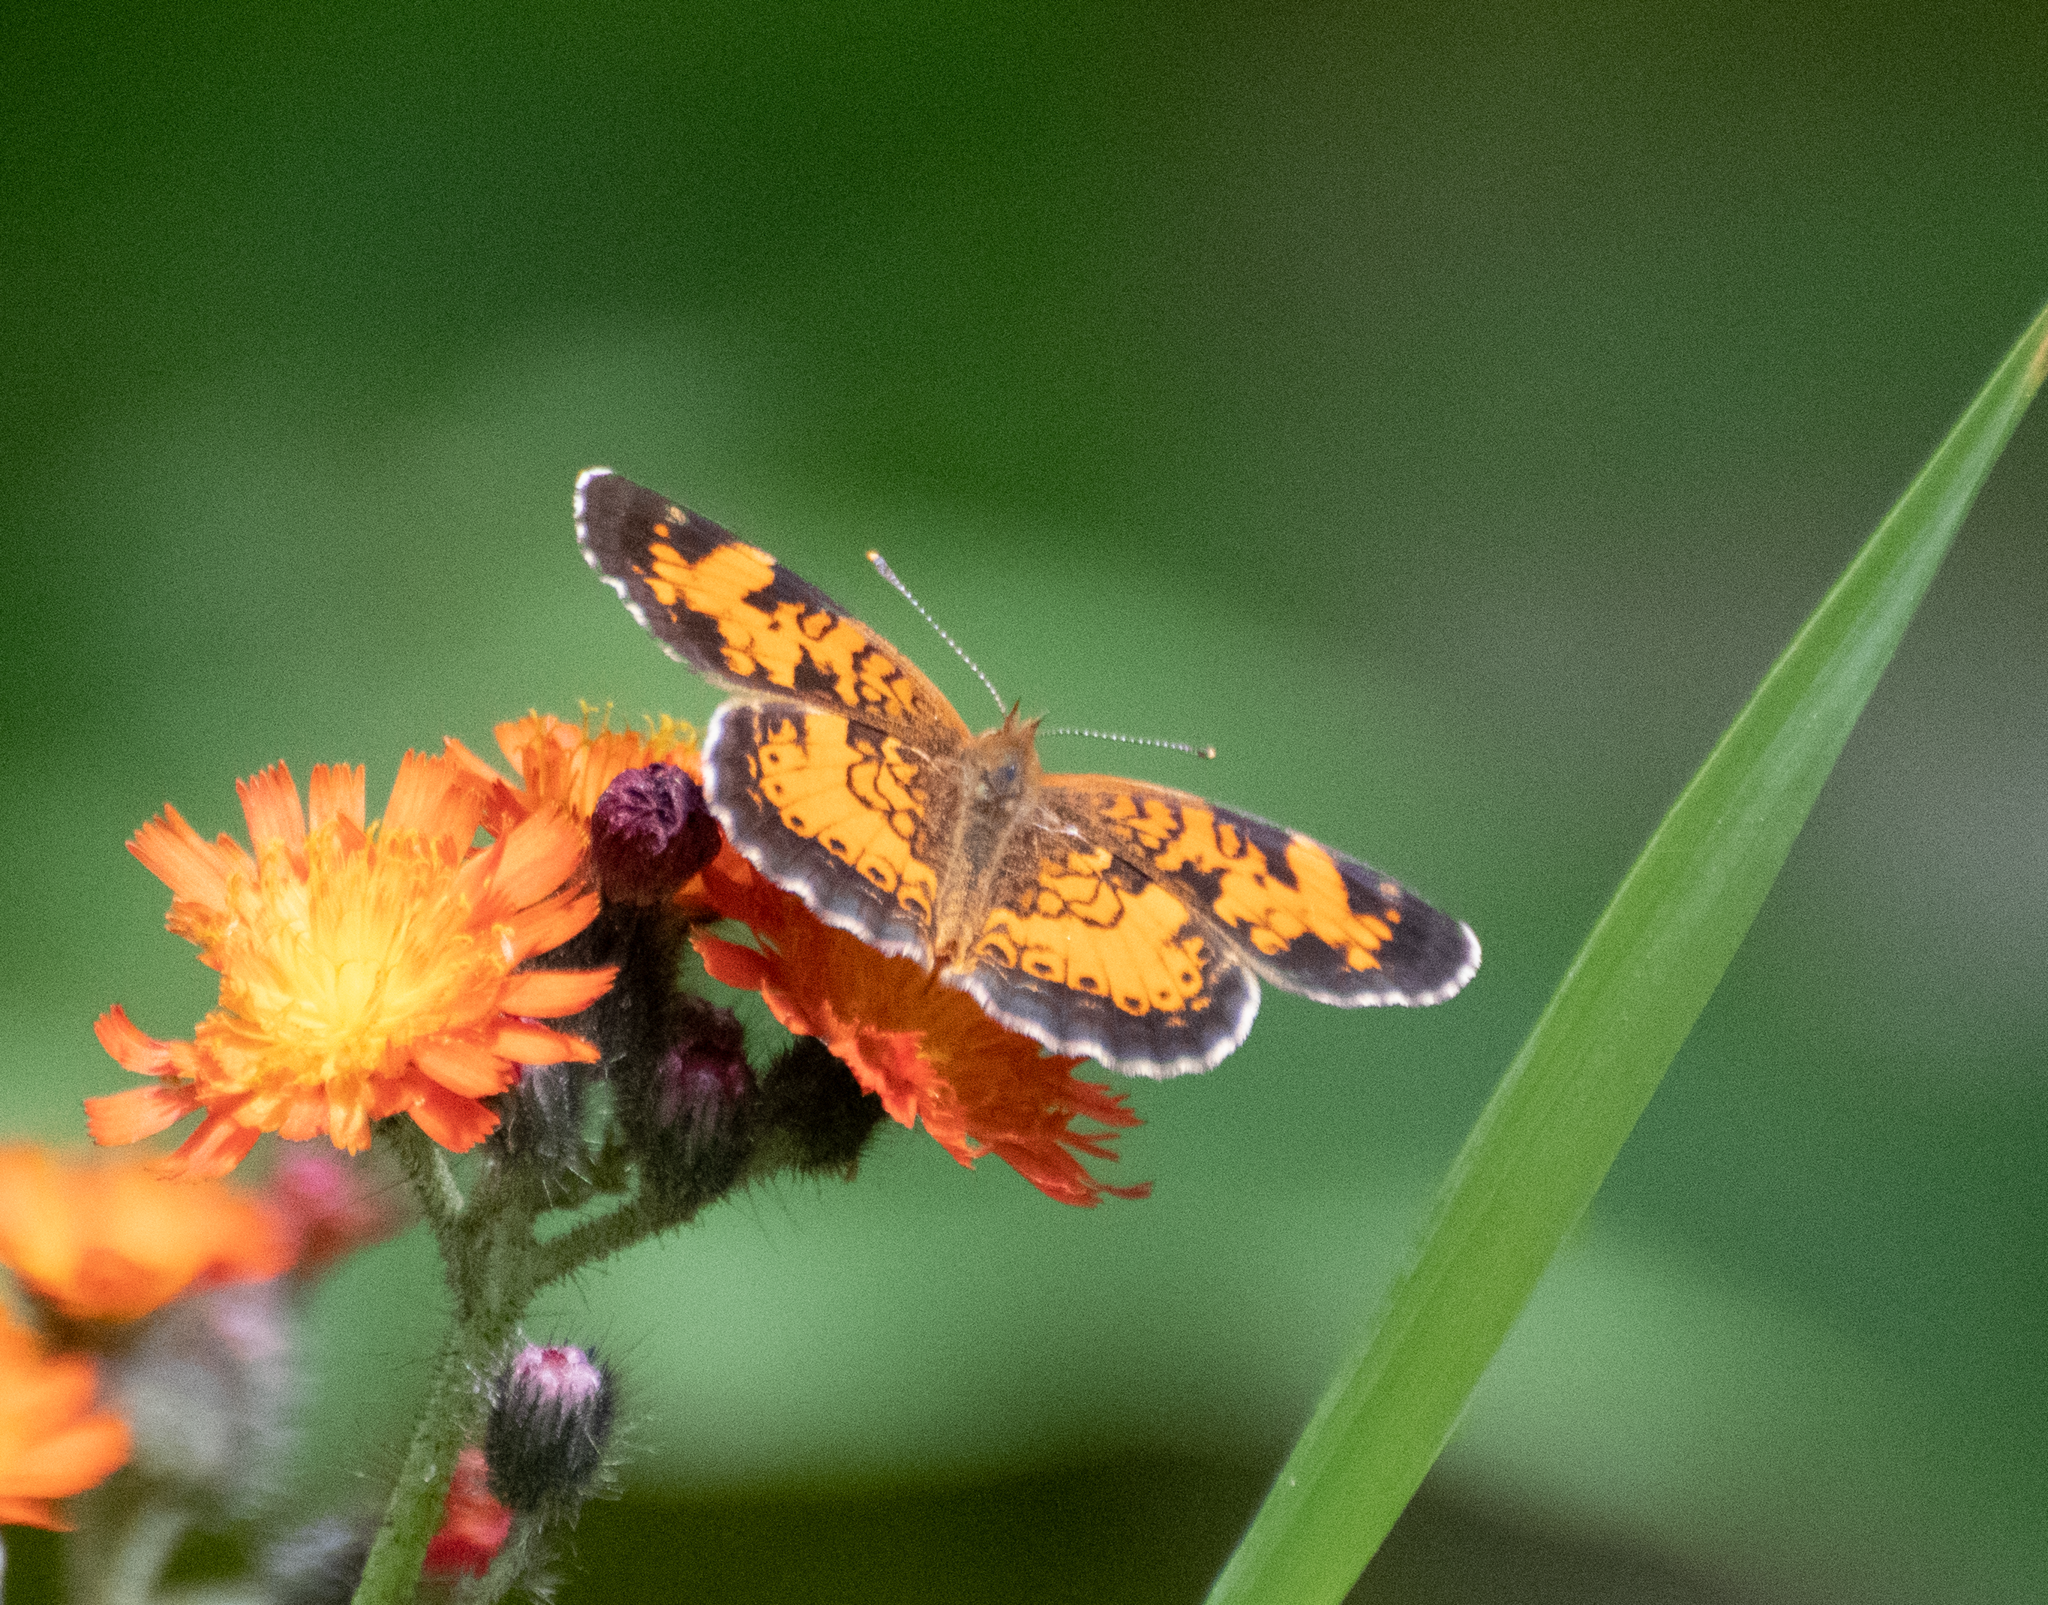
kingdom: Animalia
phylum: Arthropoda
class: Insecta
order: Lepidoptera
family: Nymphalidae
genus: Phyciodes
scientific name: Phyciodes tharos
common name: Pearl crescent
